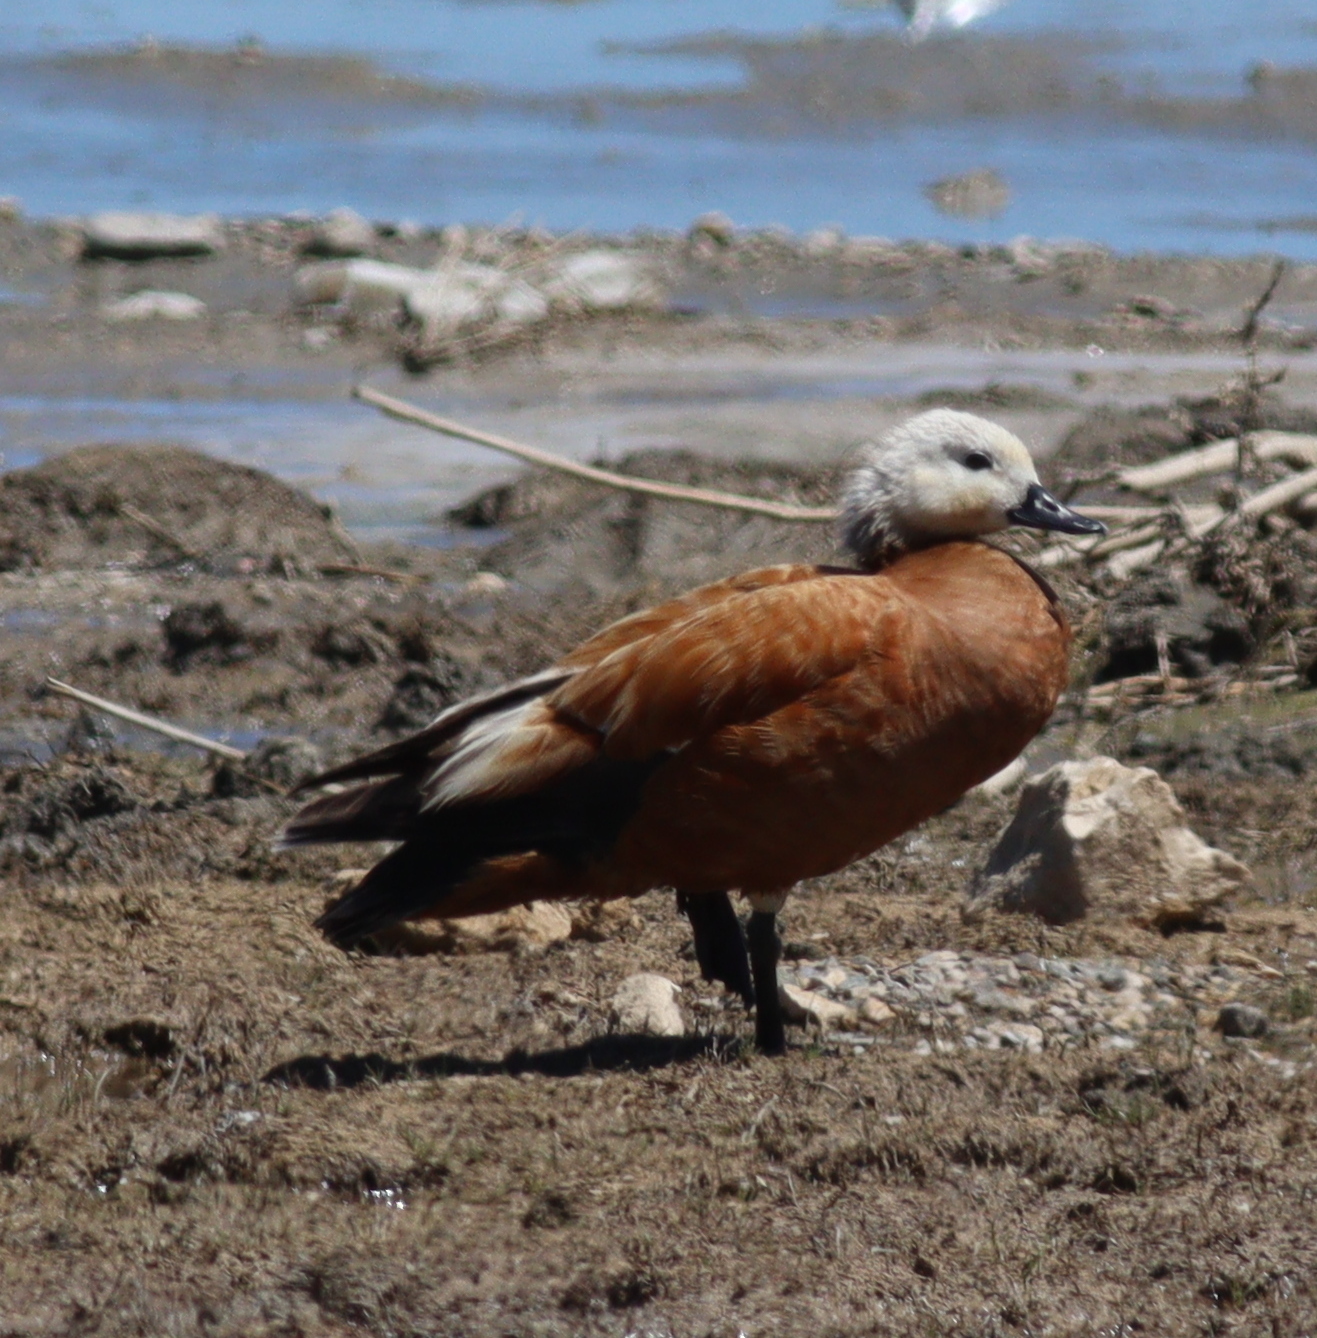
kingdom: Animalia
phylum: Chordata
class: Aves
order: Anseriformes
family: Anatidae
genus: Tadorna
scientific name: Tadorna ferruginea
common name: Ruddy shelduck
